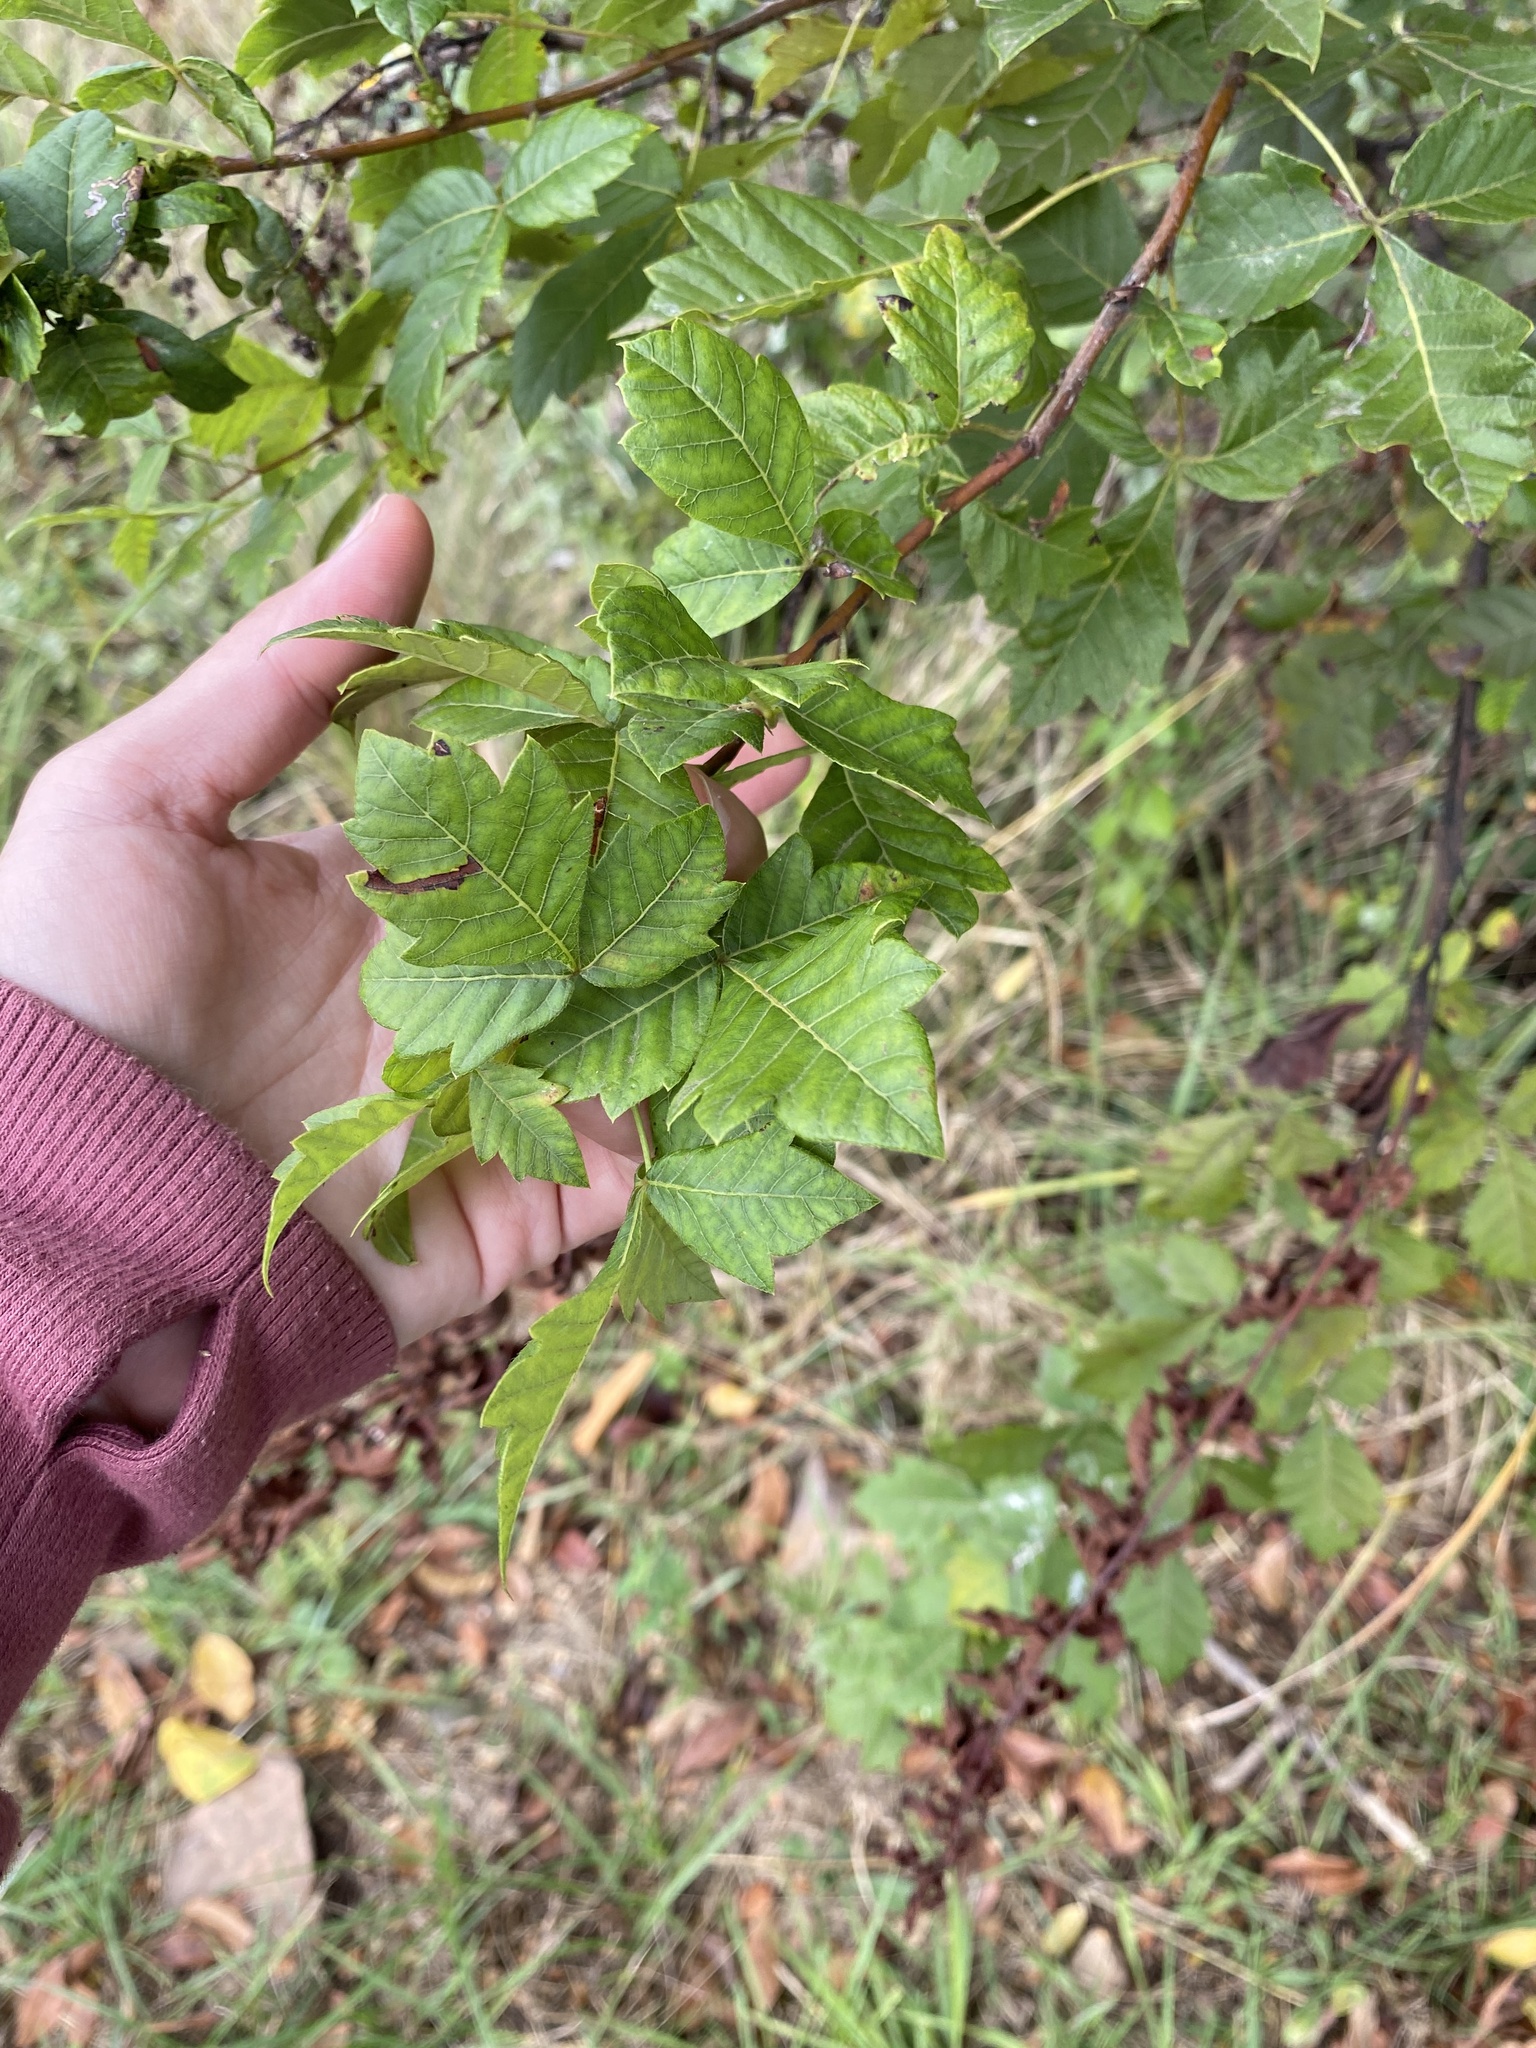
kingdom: Plantae
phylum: Tracheophyta
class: Magnoliopsida
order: Sapindales
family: Anacardiaceae
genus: Searsia
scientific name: Searsia dentata
